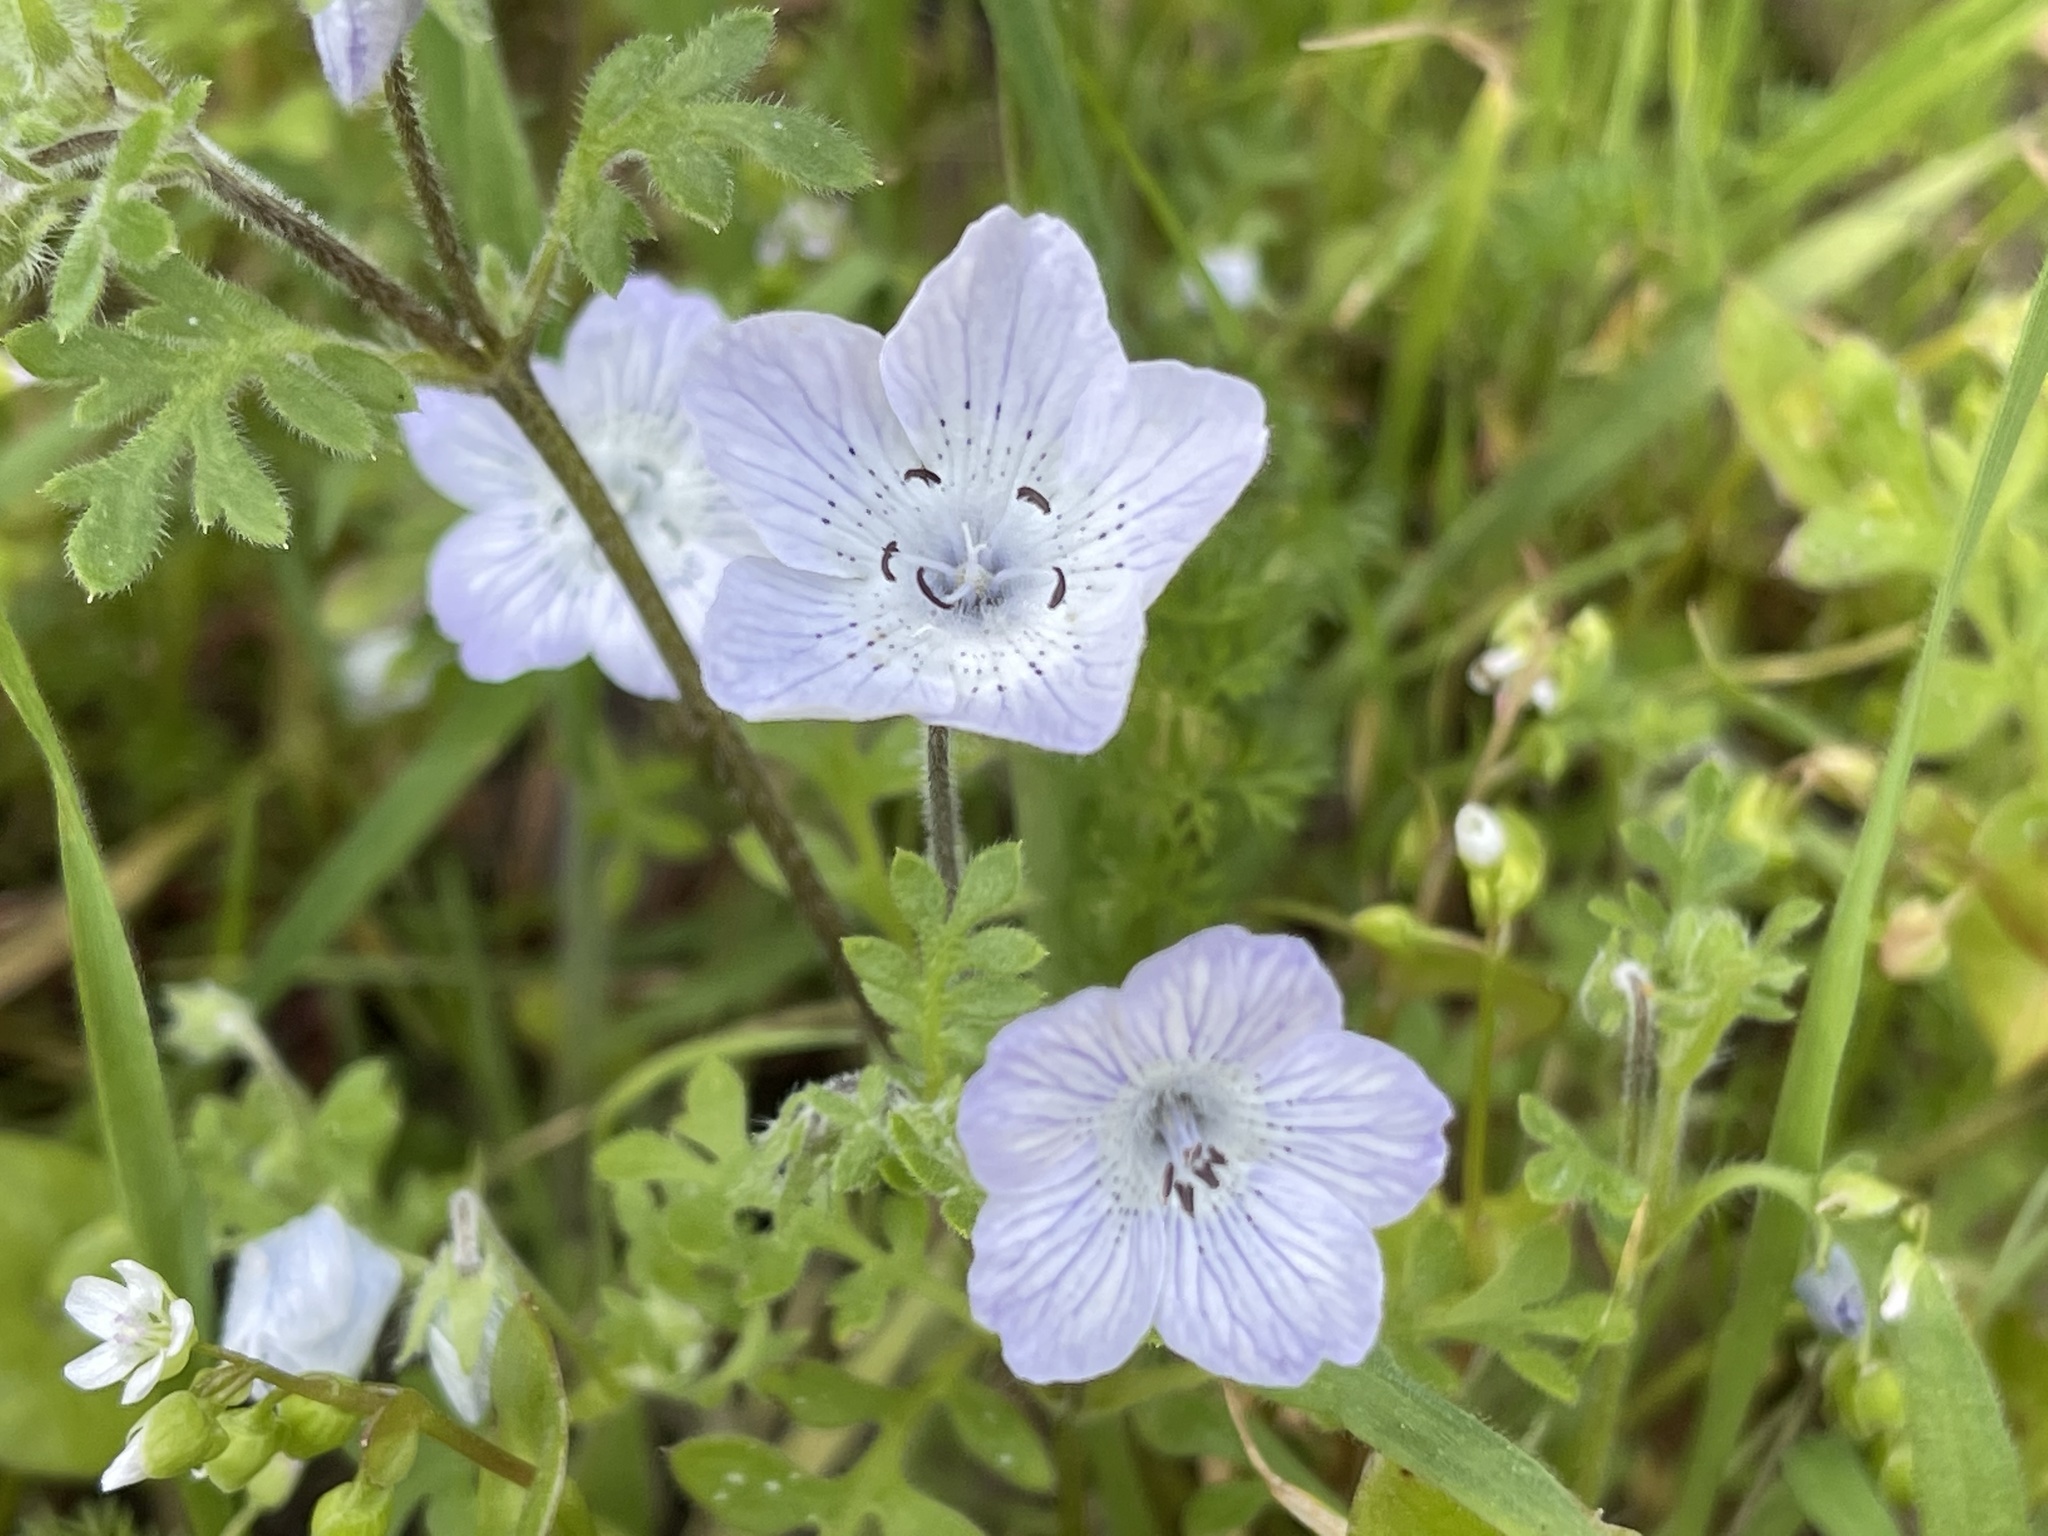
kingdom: Plantae
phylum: Tracheophyta
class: Magnoliopsida
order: Boraginales
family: Hydrophyllaceae
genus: Nemophila
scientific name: Nemophila menziesii
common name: Baby's-blue-eyes
